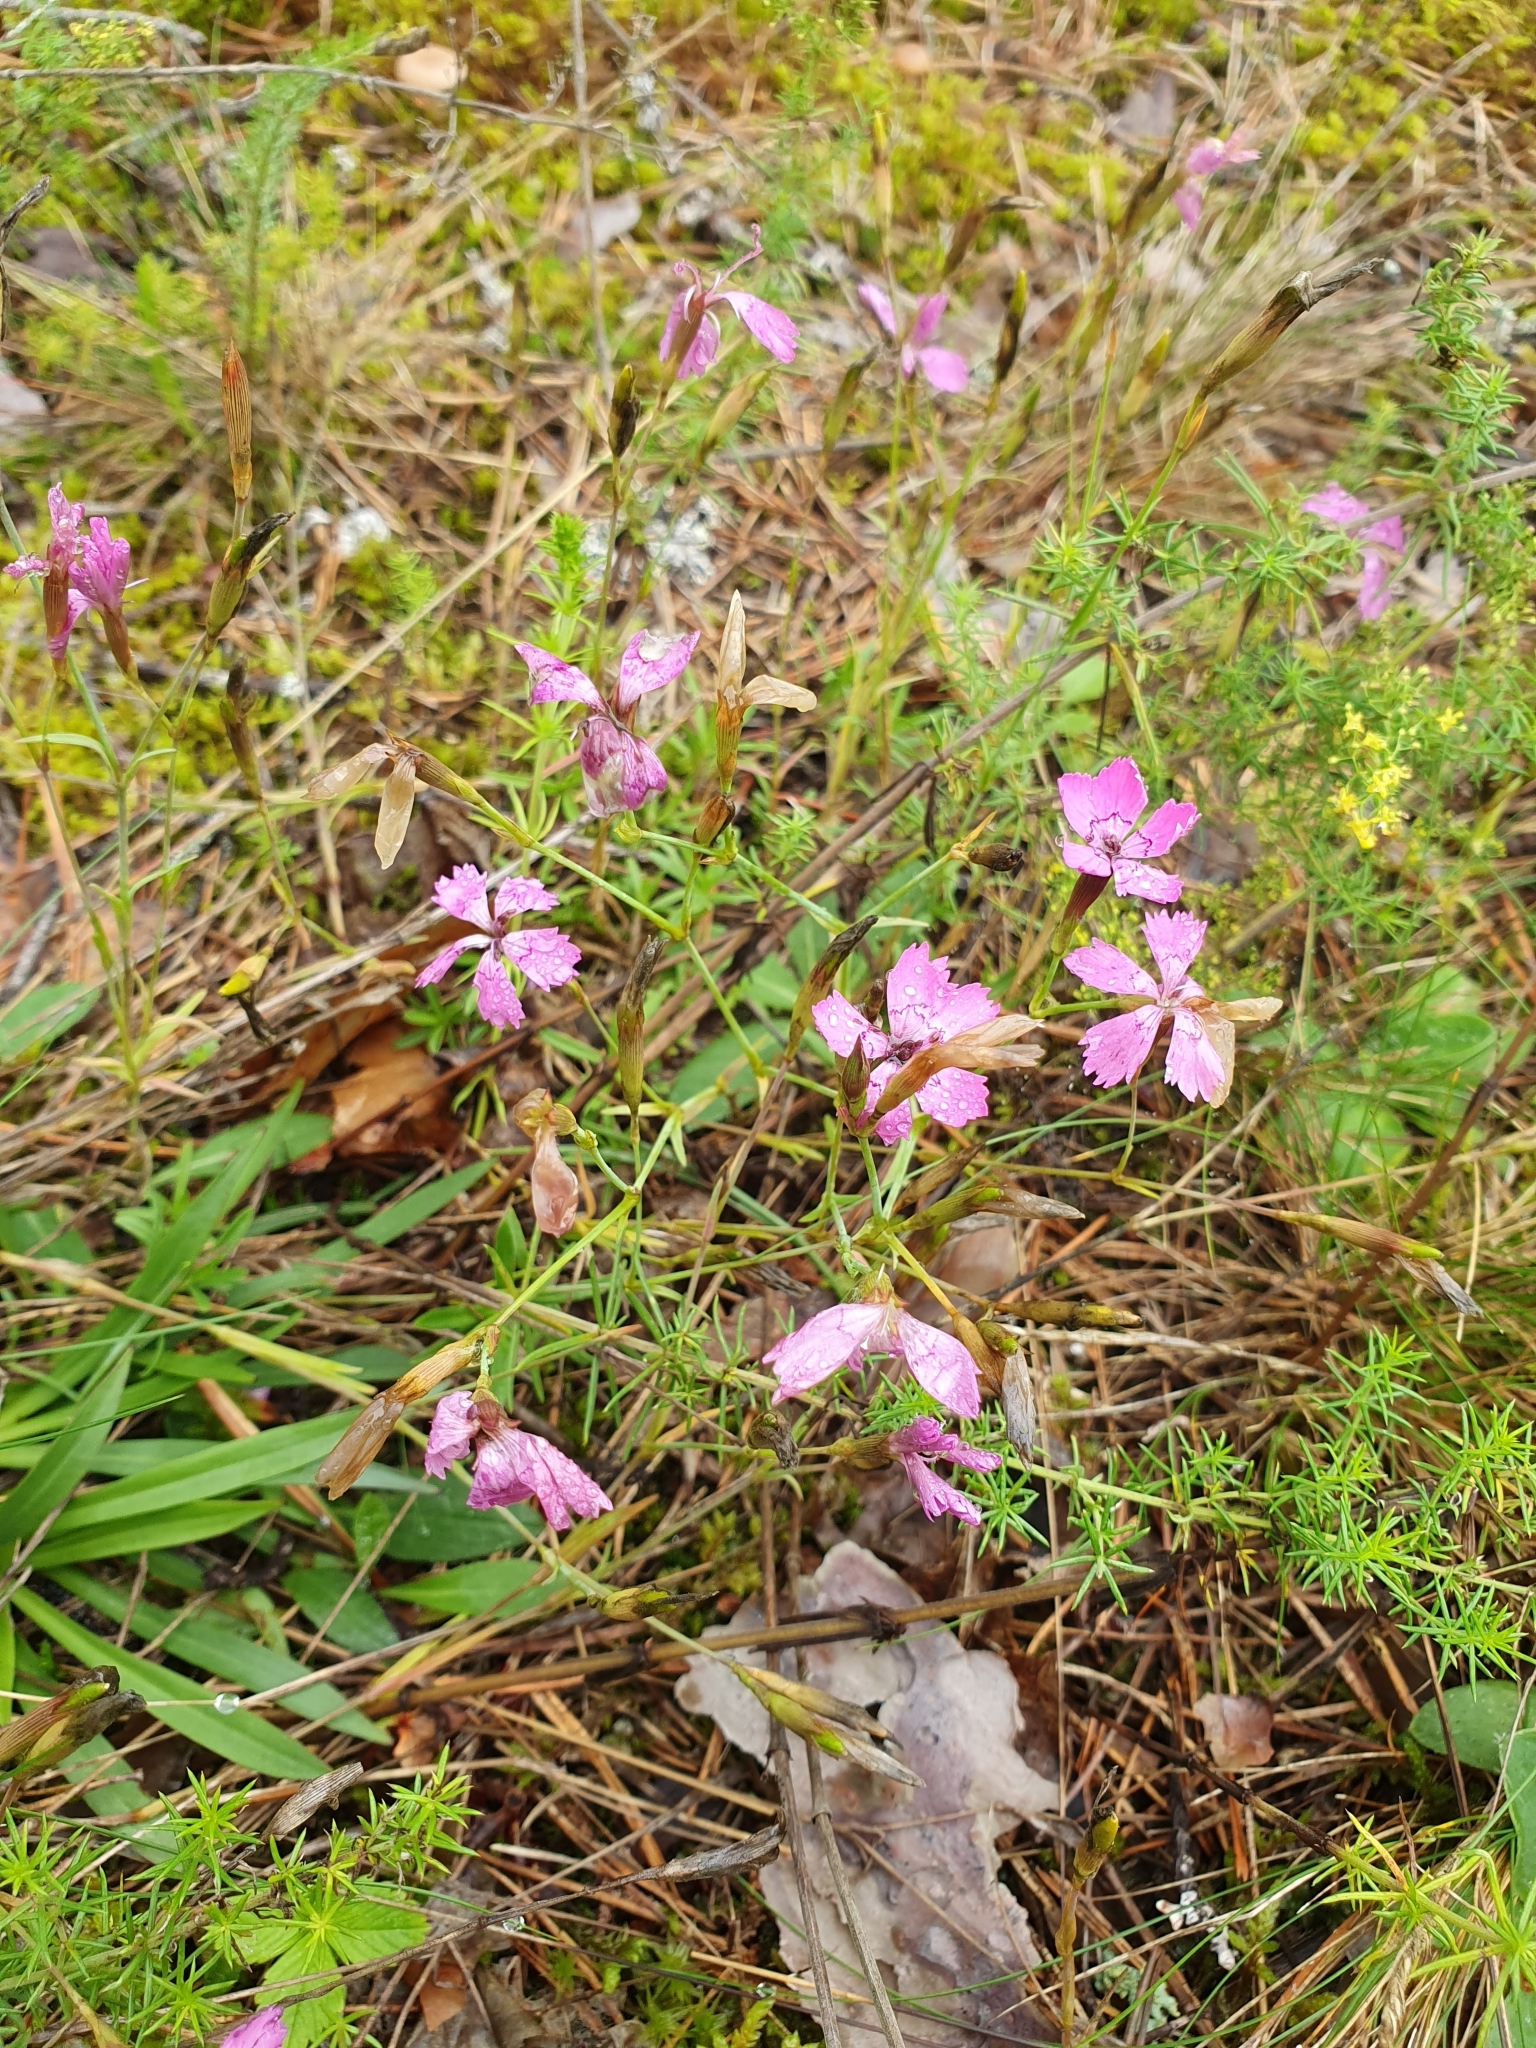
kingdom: Plantae
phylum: Tracheophyta
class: Magnoliopsida
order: Caryophyllales
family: Caryophyllaceae
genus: Dianthus
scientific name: Dianthus deltoides
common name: Maiden pink
